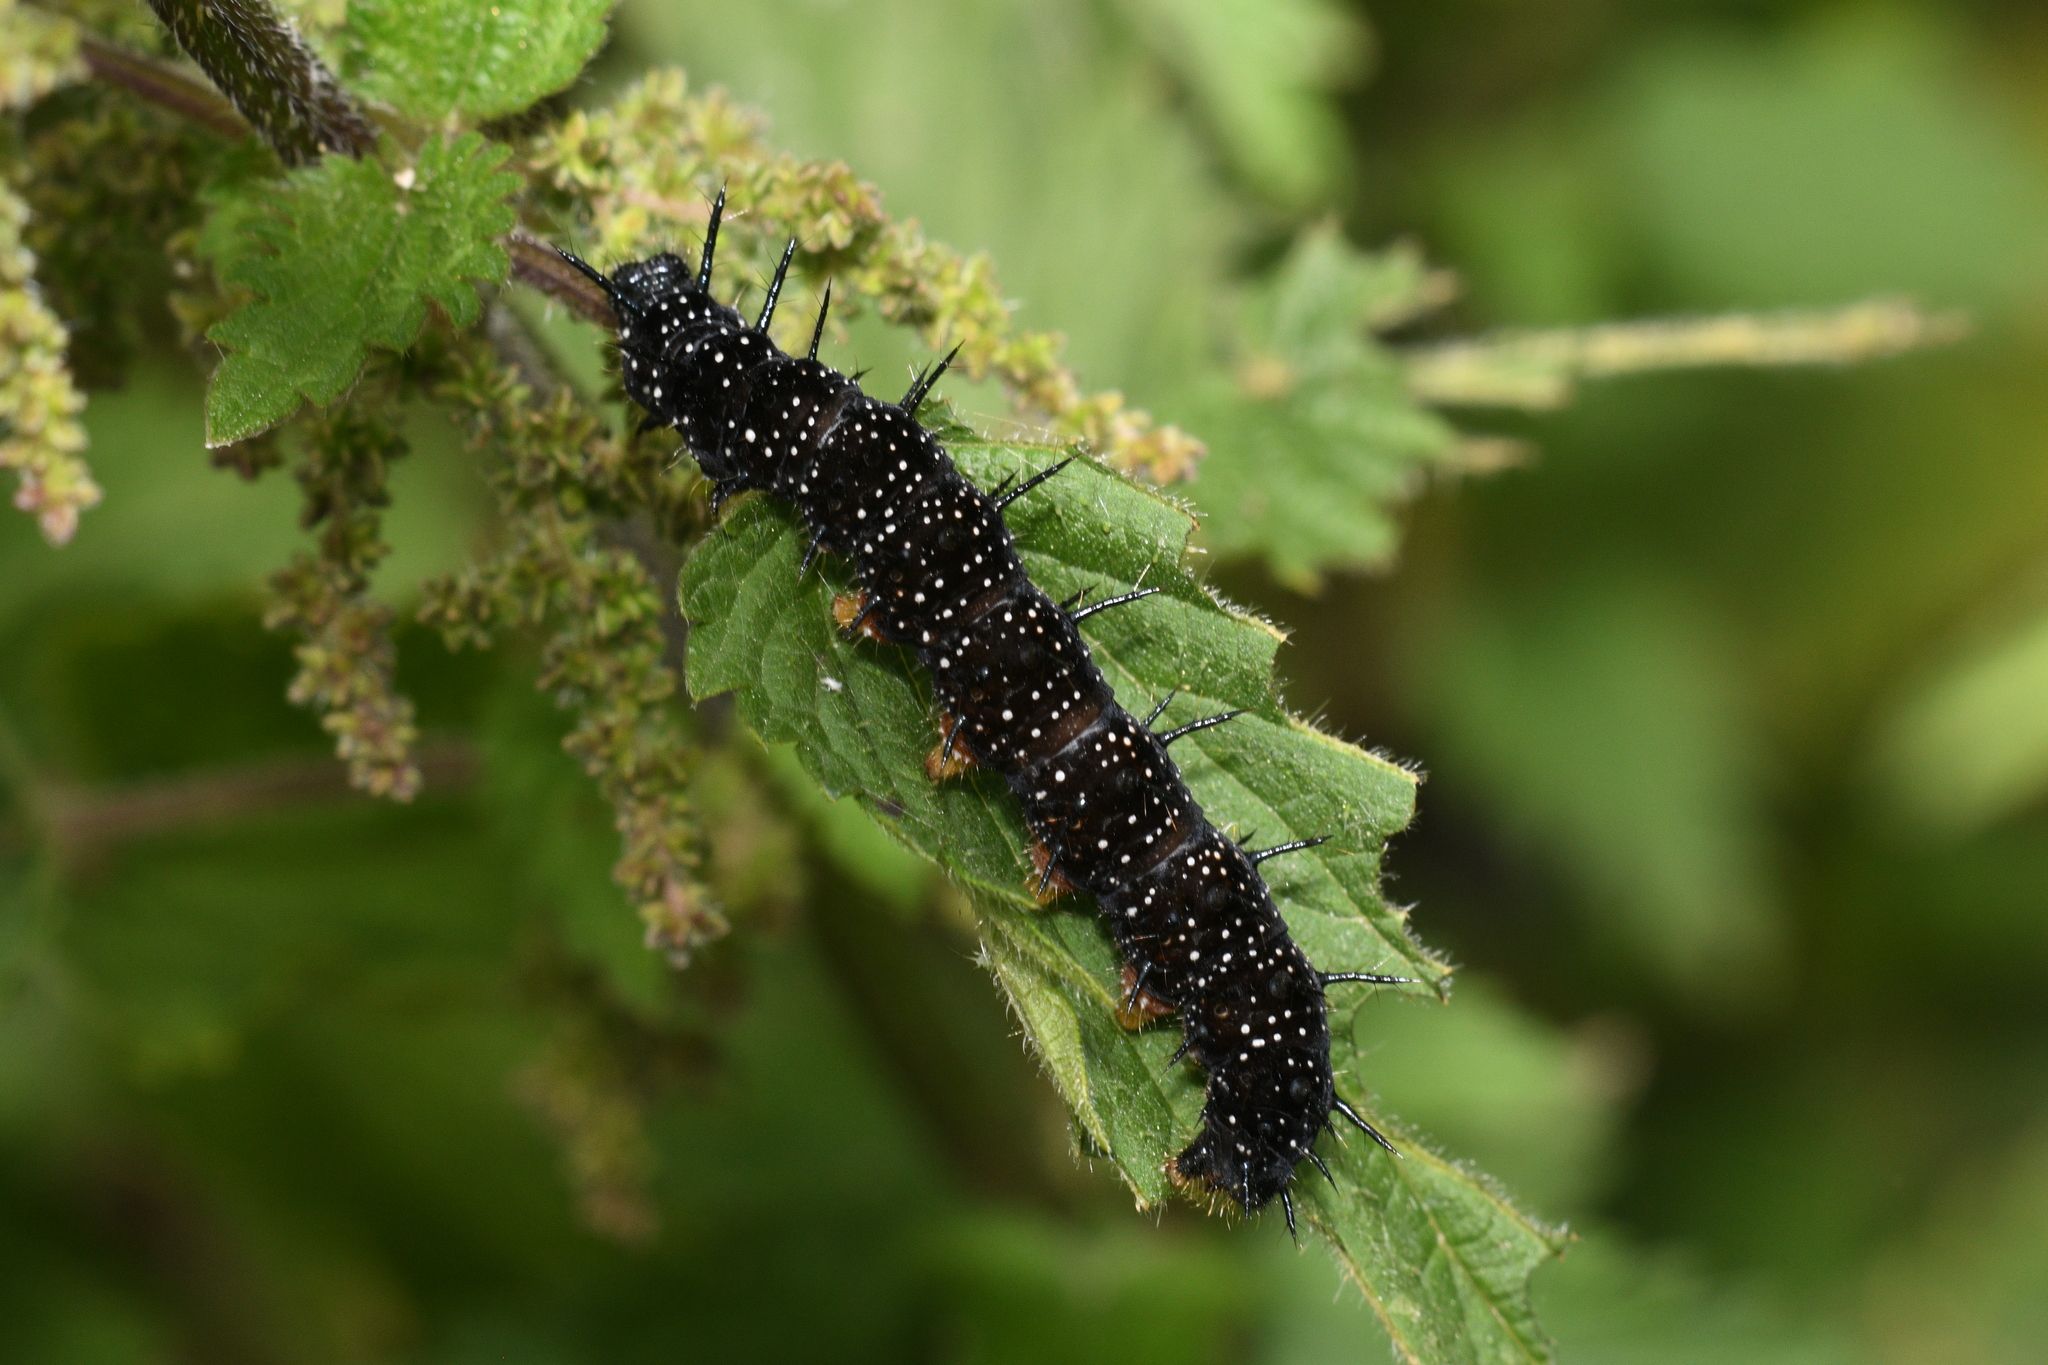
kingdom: Animalia
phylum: Arthropoda
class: Insecta
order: Lepidoptera
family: Nymphalidae
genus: Aglais
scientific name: Aglais io
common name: Peacock
